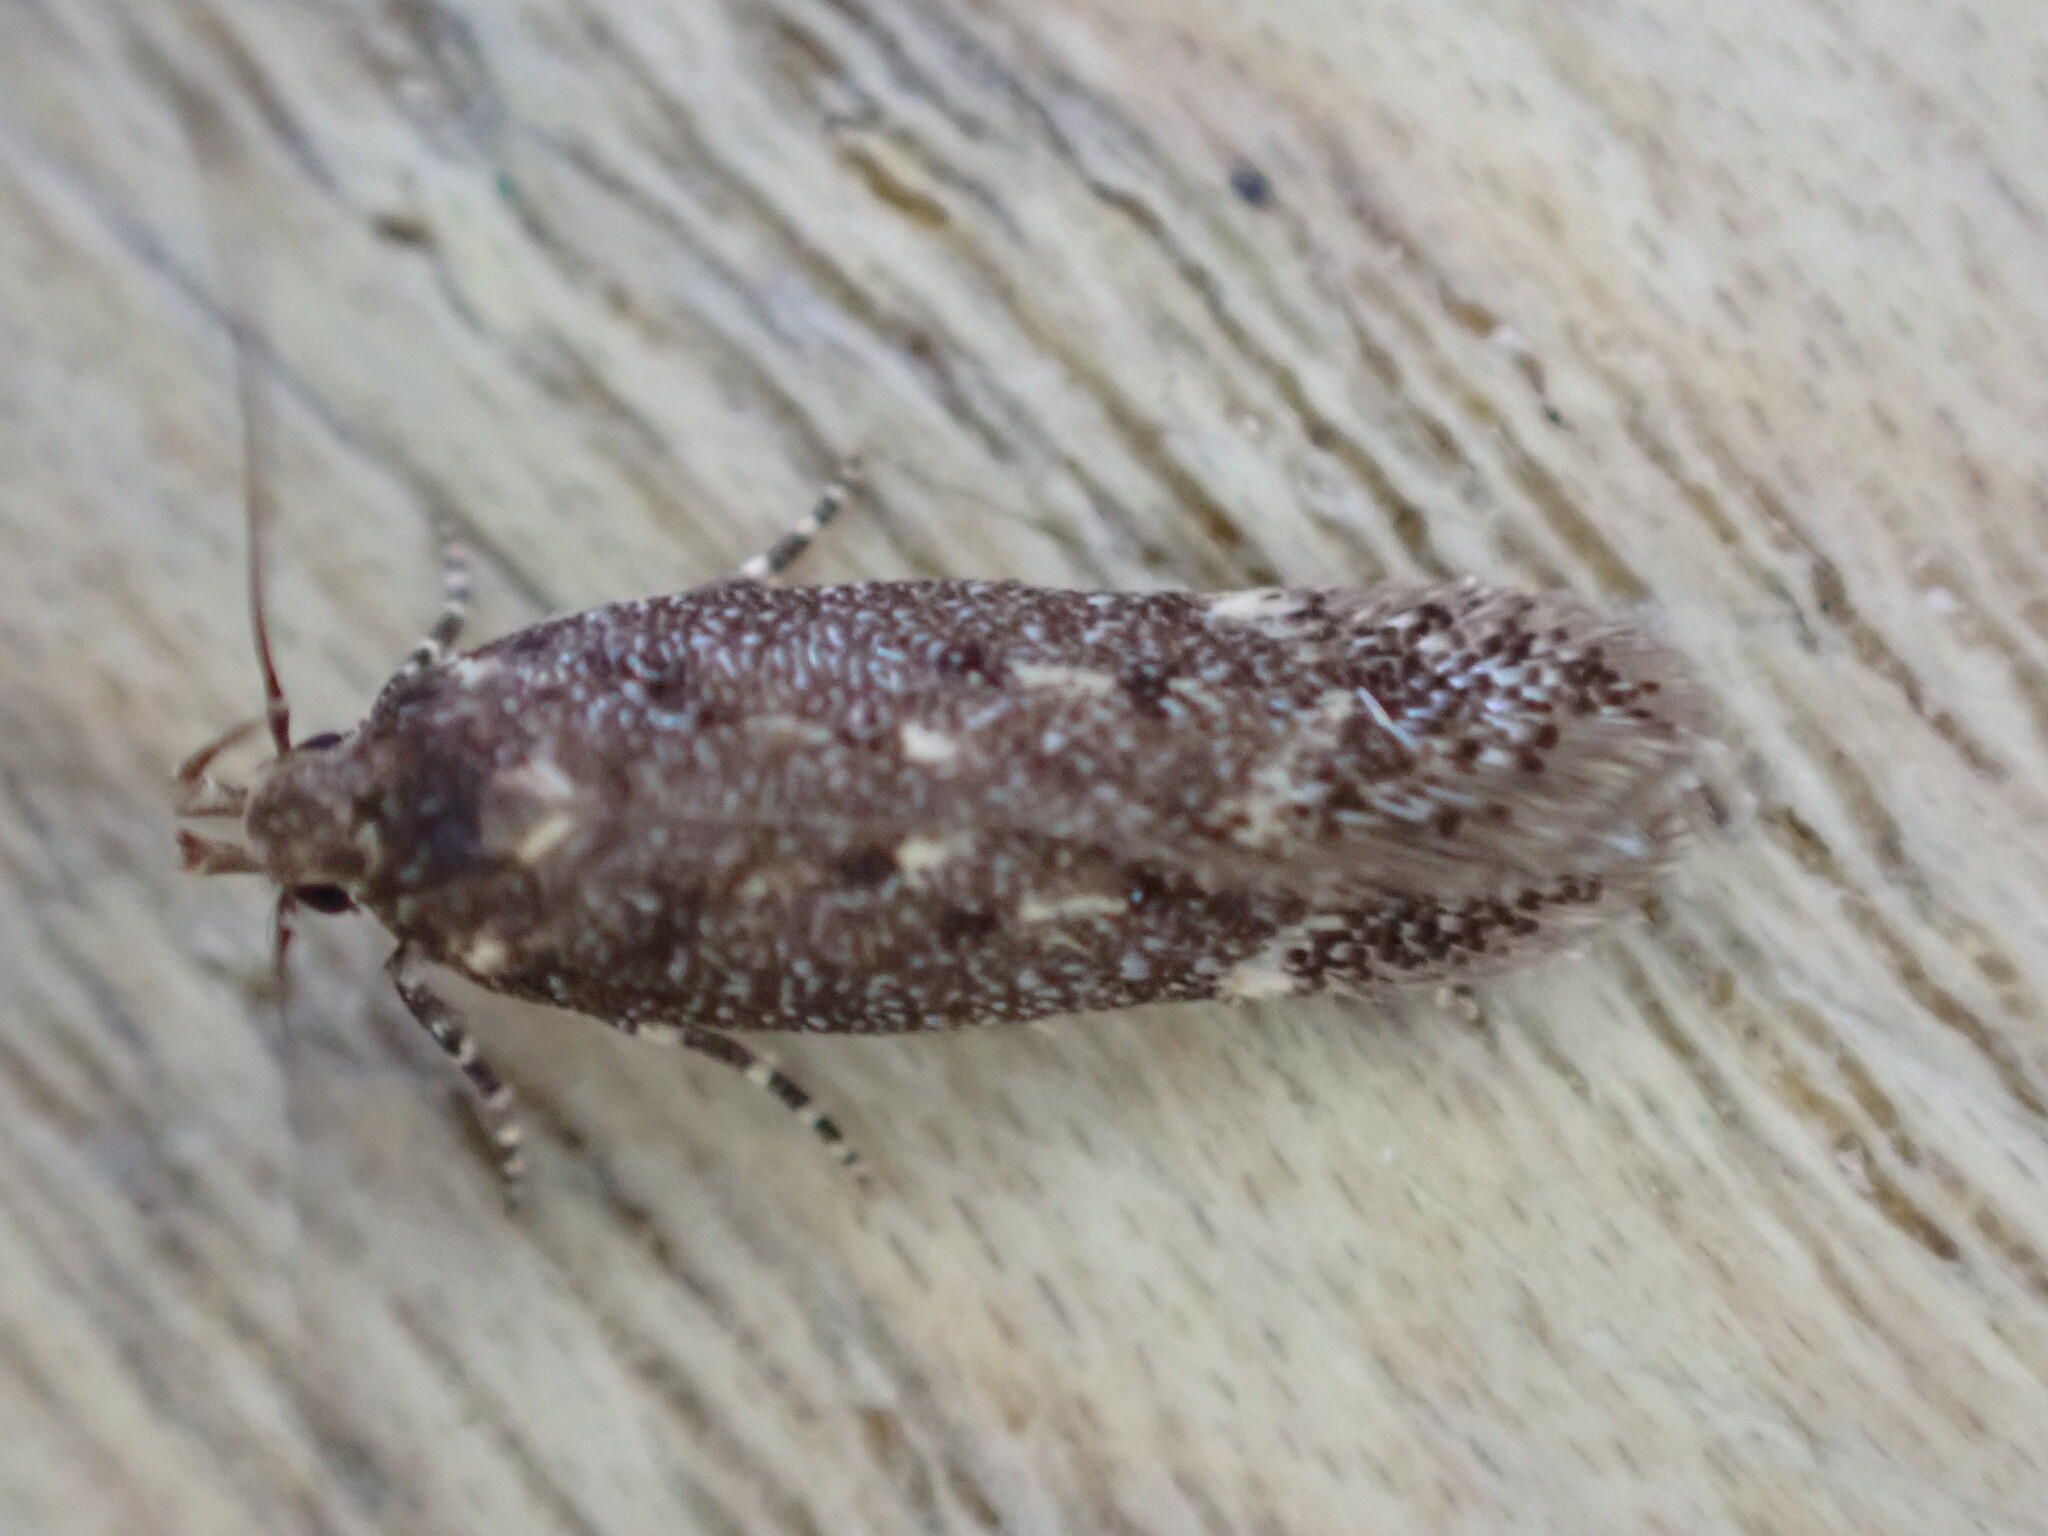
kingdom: Animalia
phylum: Arthropoda
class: Insecta
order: Lepidoptera
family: Gelechiidae
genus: Bryotropha
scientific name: Bryotropha affinis
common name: Dark groundling
